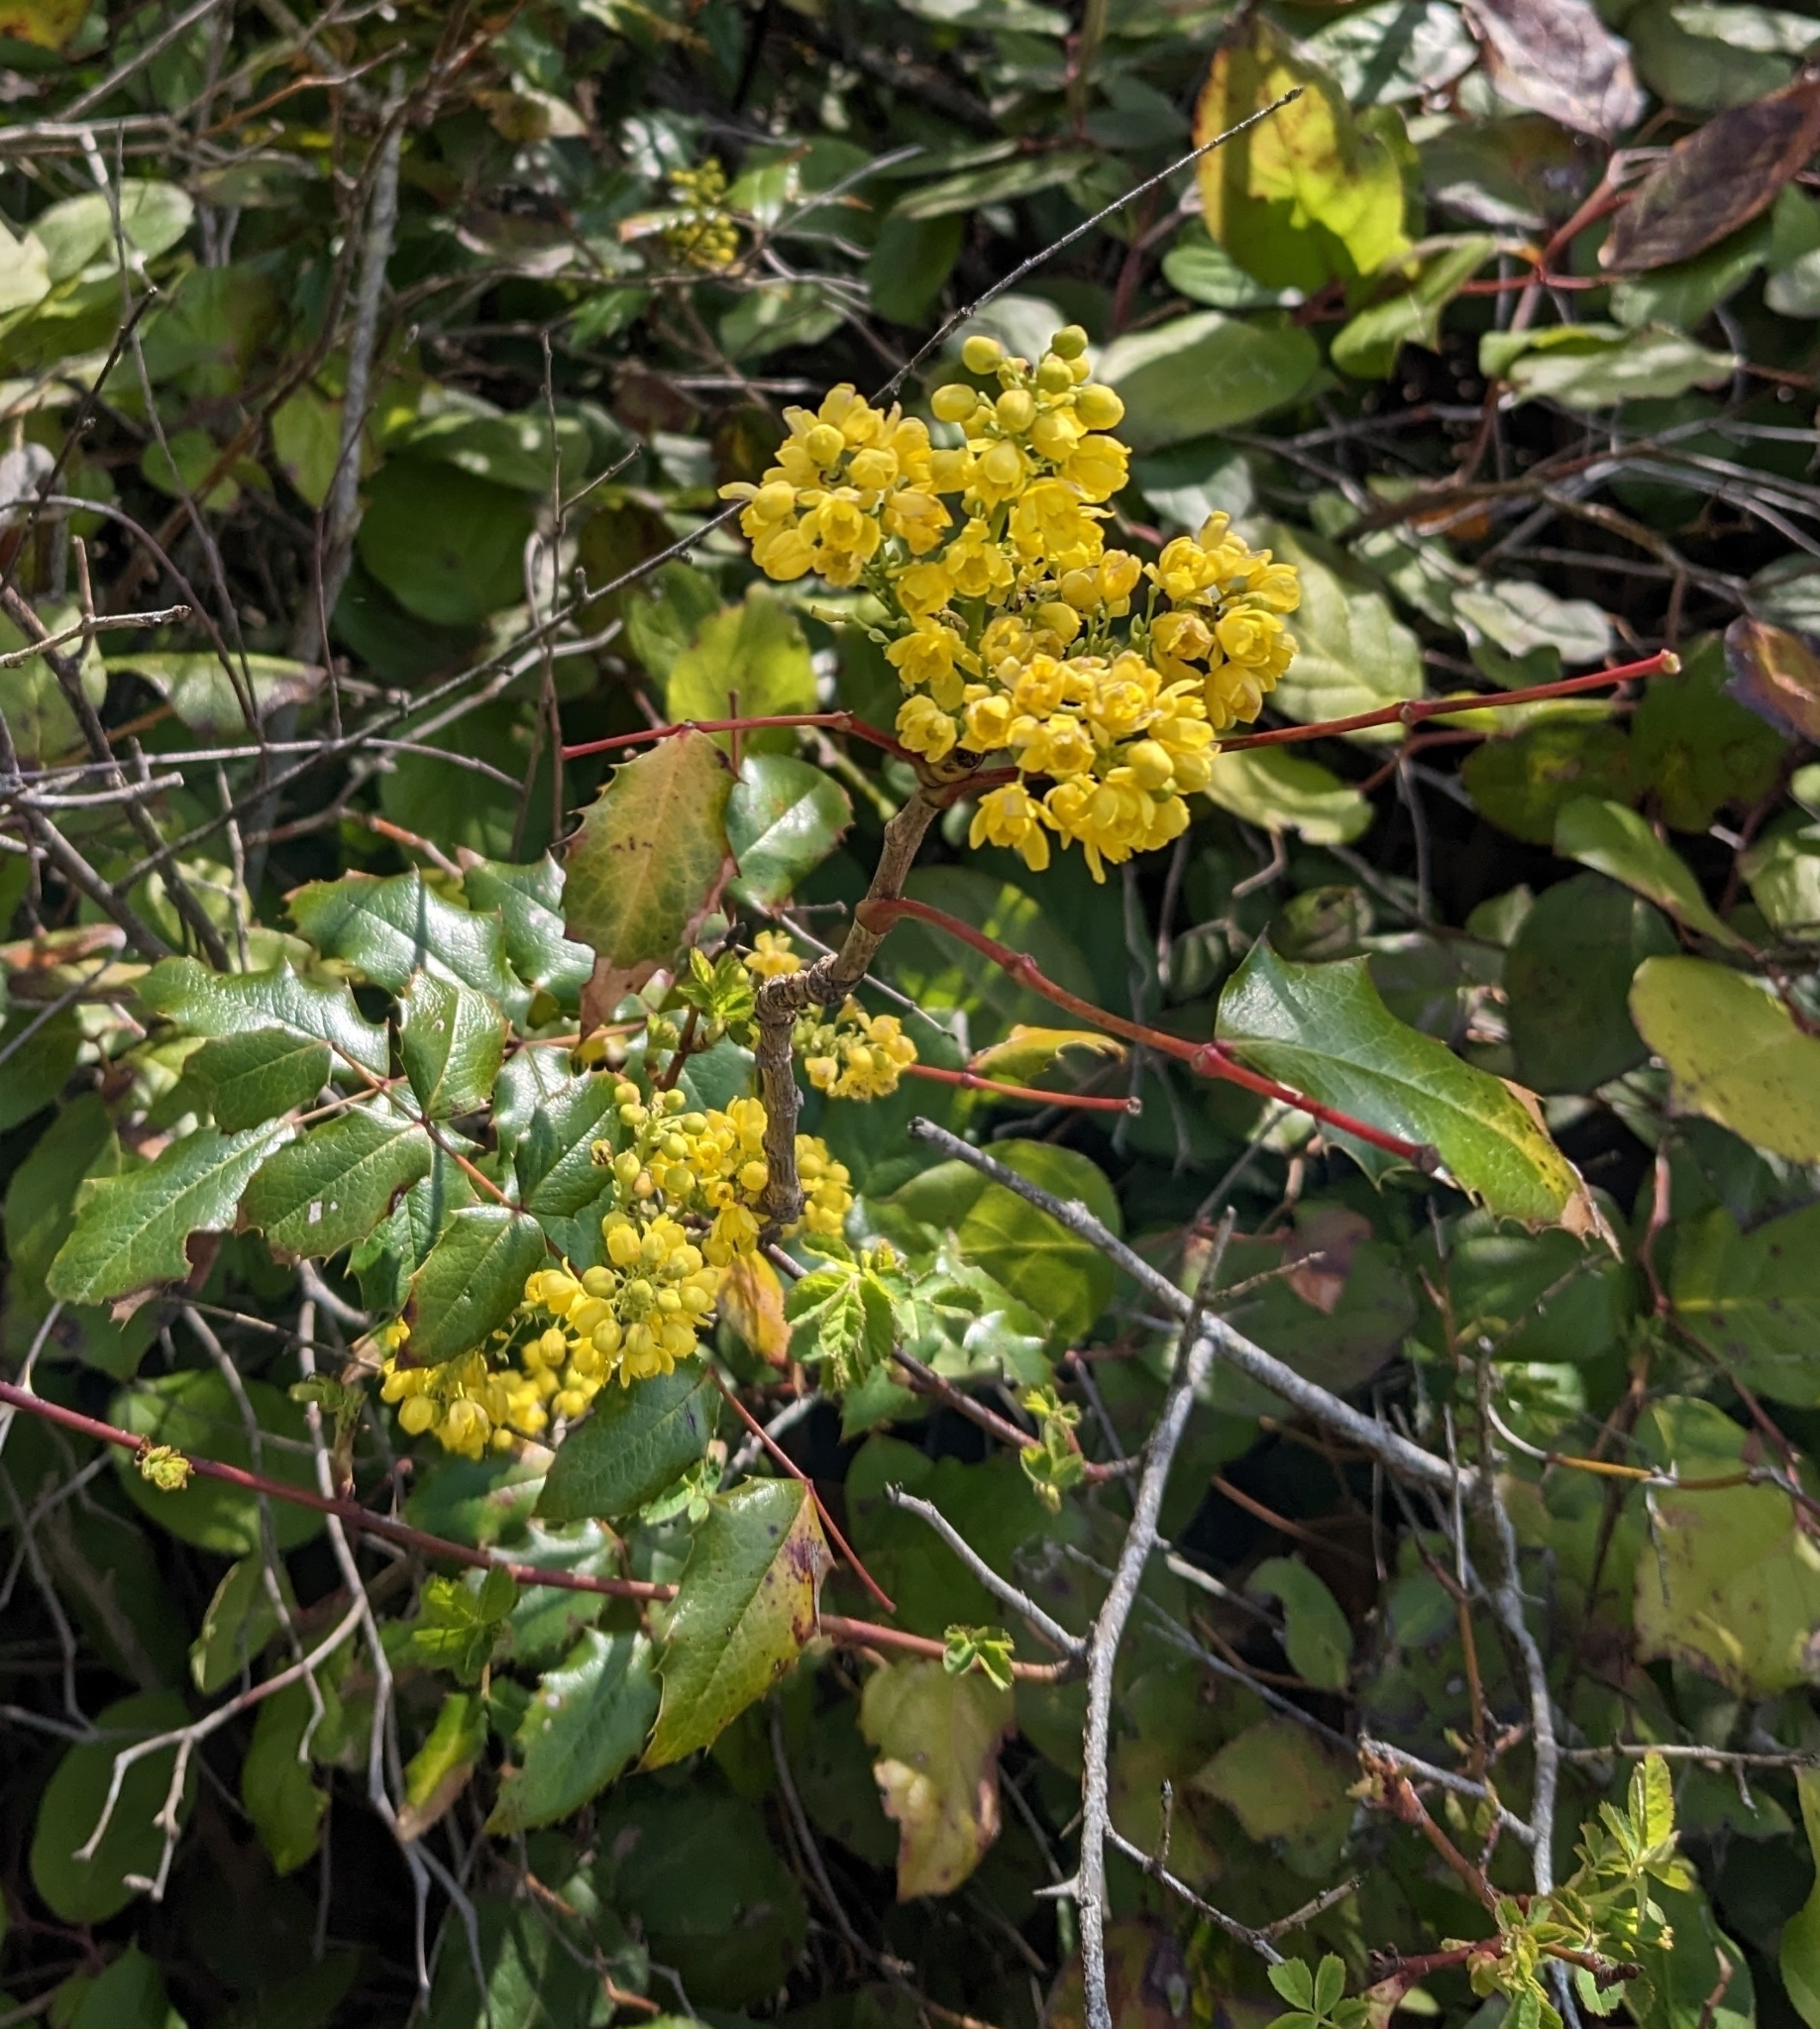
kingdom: Plantae
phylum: Tracheophyta
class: Magnoliopsida
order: Ranunculales
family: Berberidaceae
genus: Mahonia
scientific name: Mahonia aquifolium
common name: Oregon-grape
